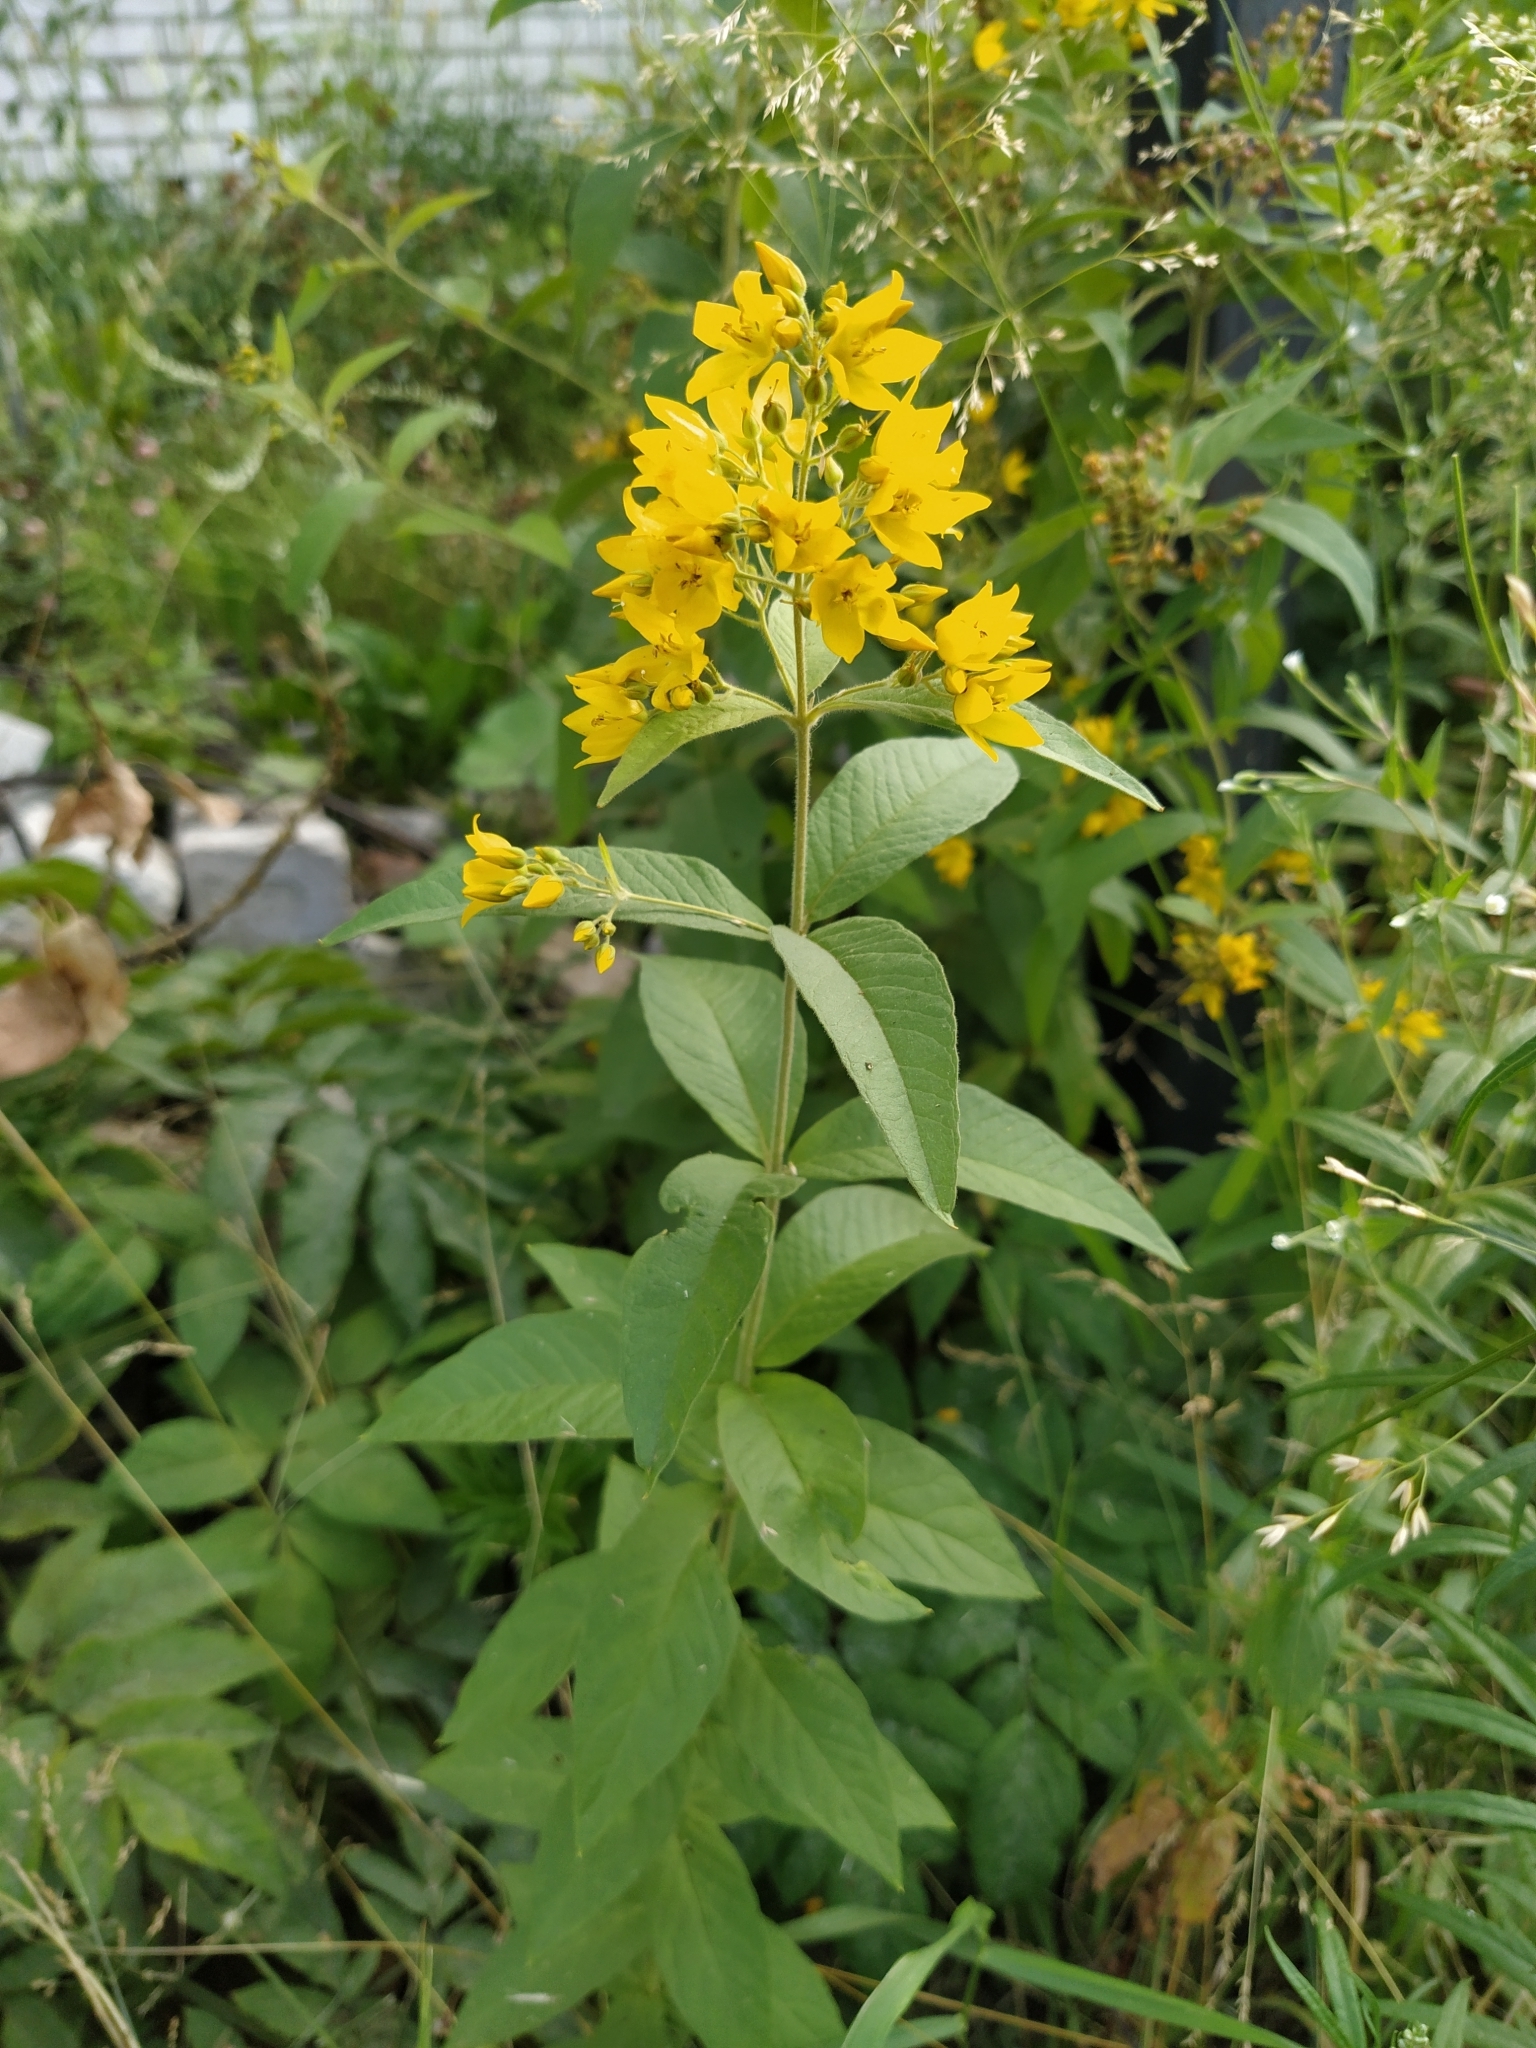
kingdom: Plantae
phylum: Tracheophyta
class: Magnoliopsida
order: Ericales
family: Primulaceae
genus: Lysimachia
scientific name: Lysimachia vulgaris
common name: Yellow loosestrife
